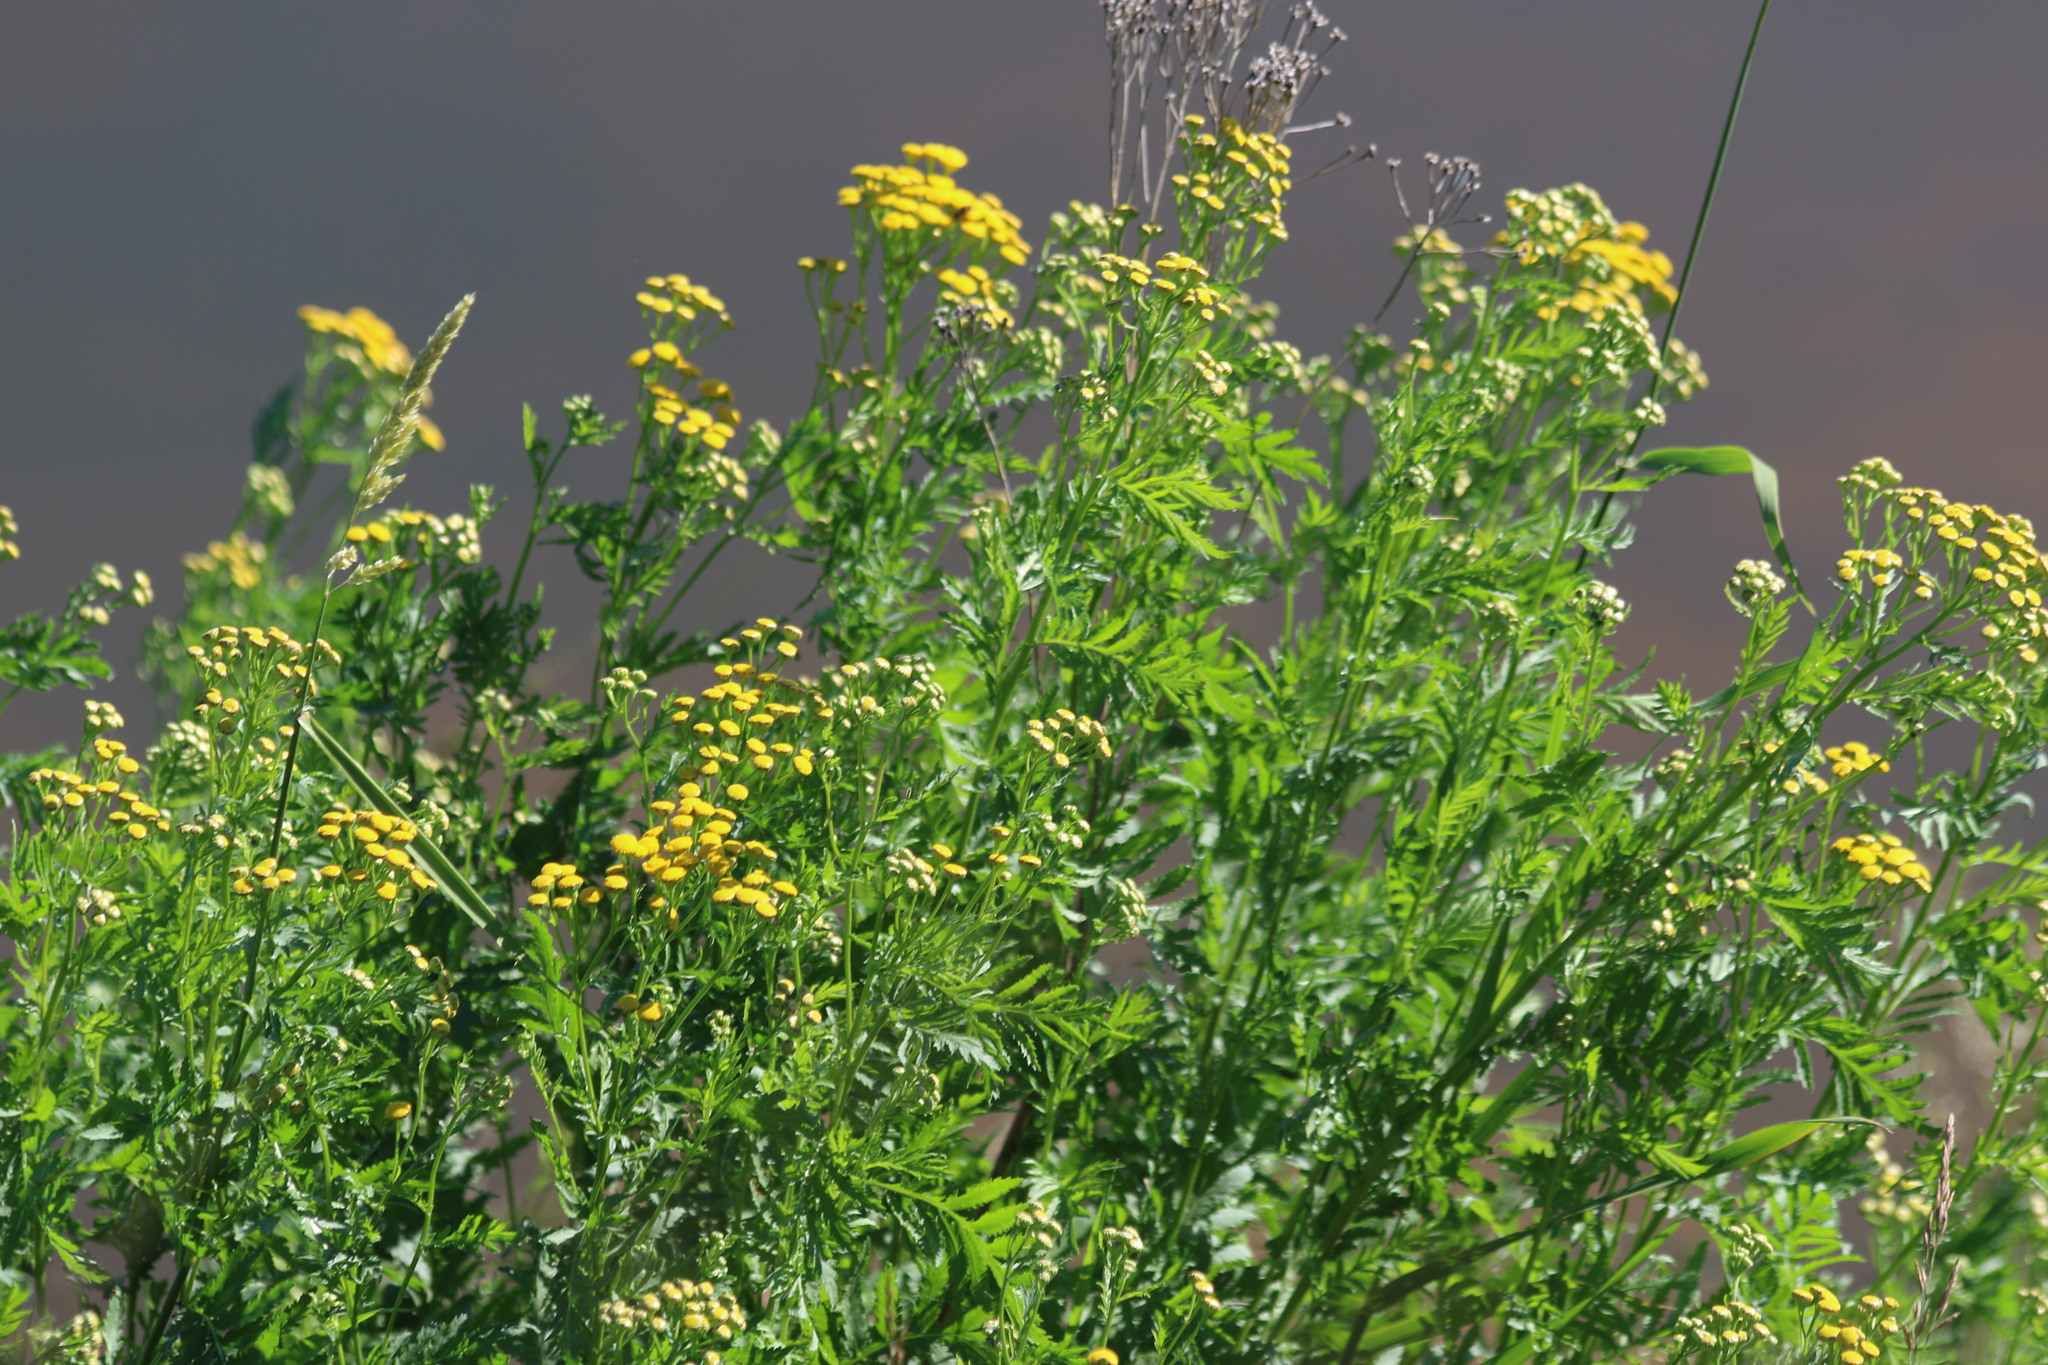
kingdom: Plantae
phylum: Tracheophyta
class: Magnoliopsida
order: Asterales
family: Asteraceae
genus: Tanacetum
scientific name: Tanacetum vulgare
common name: Common tansy
